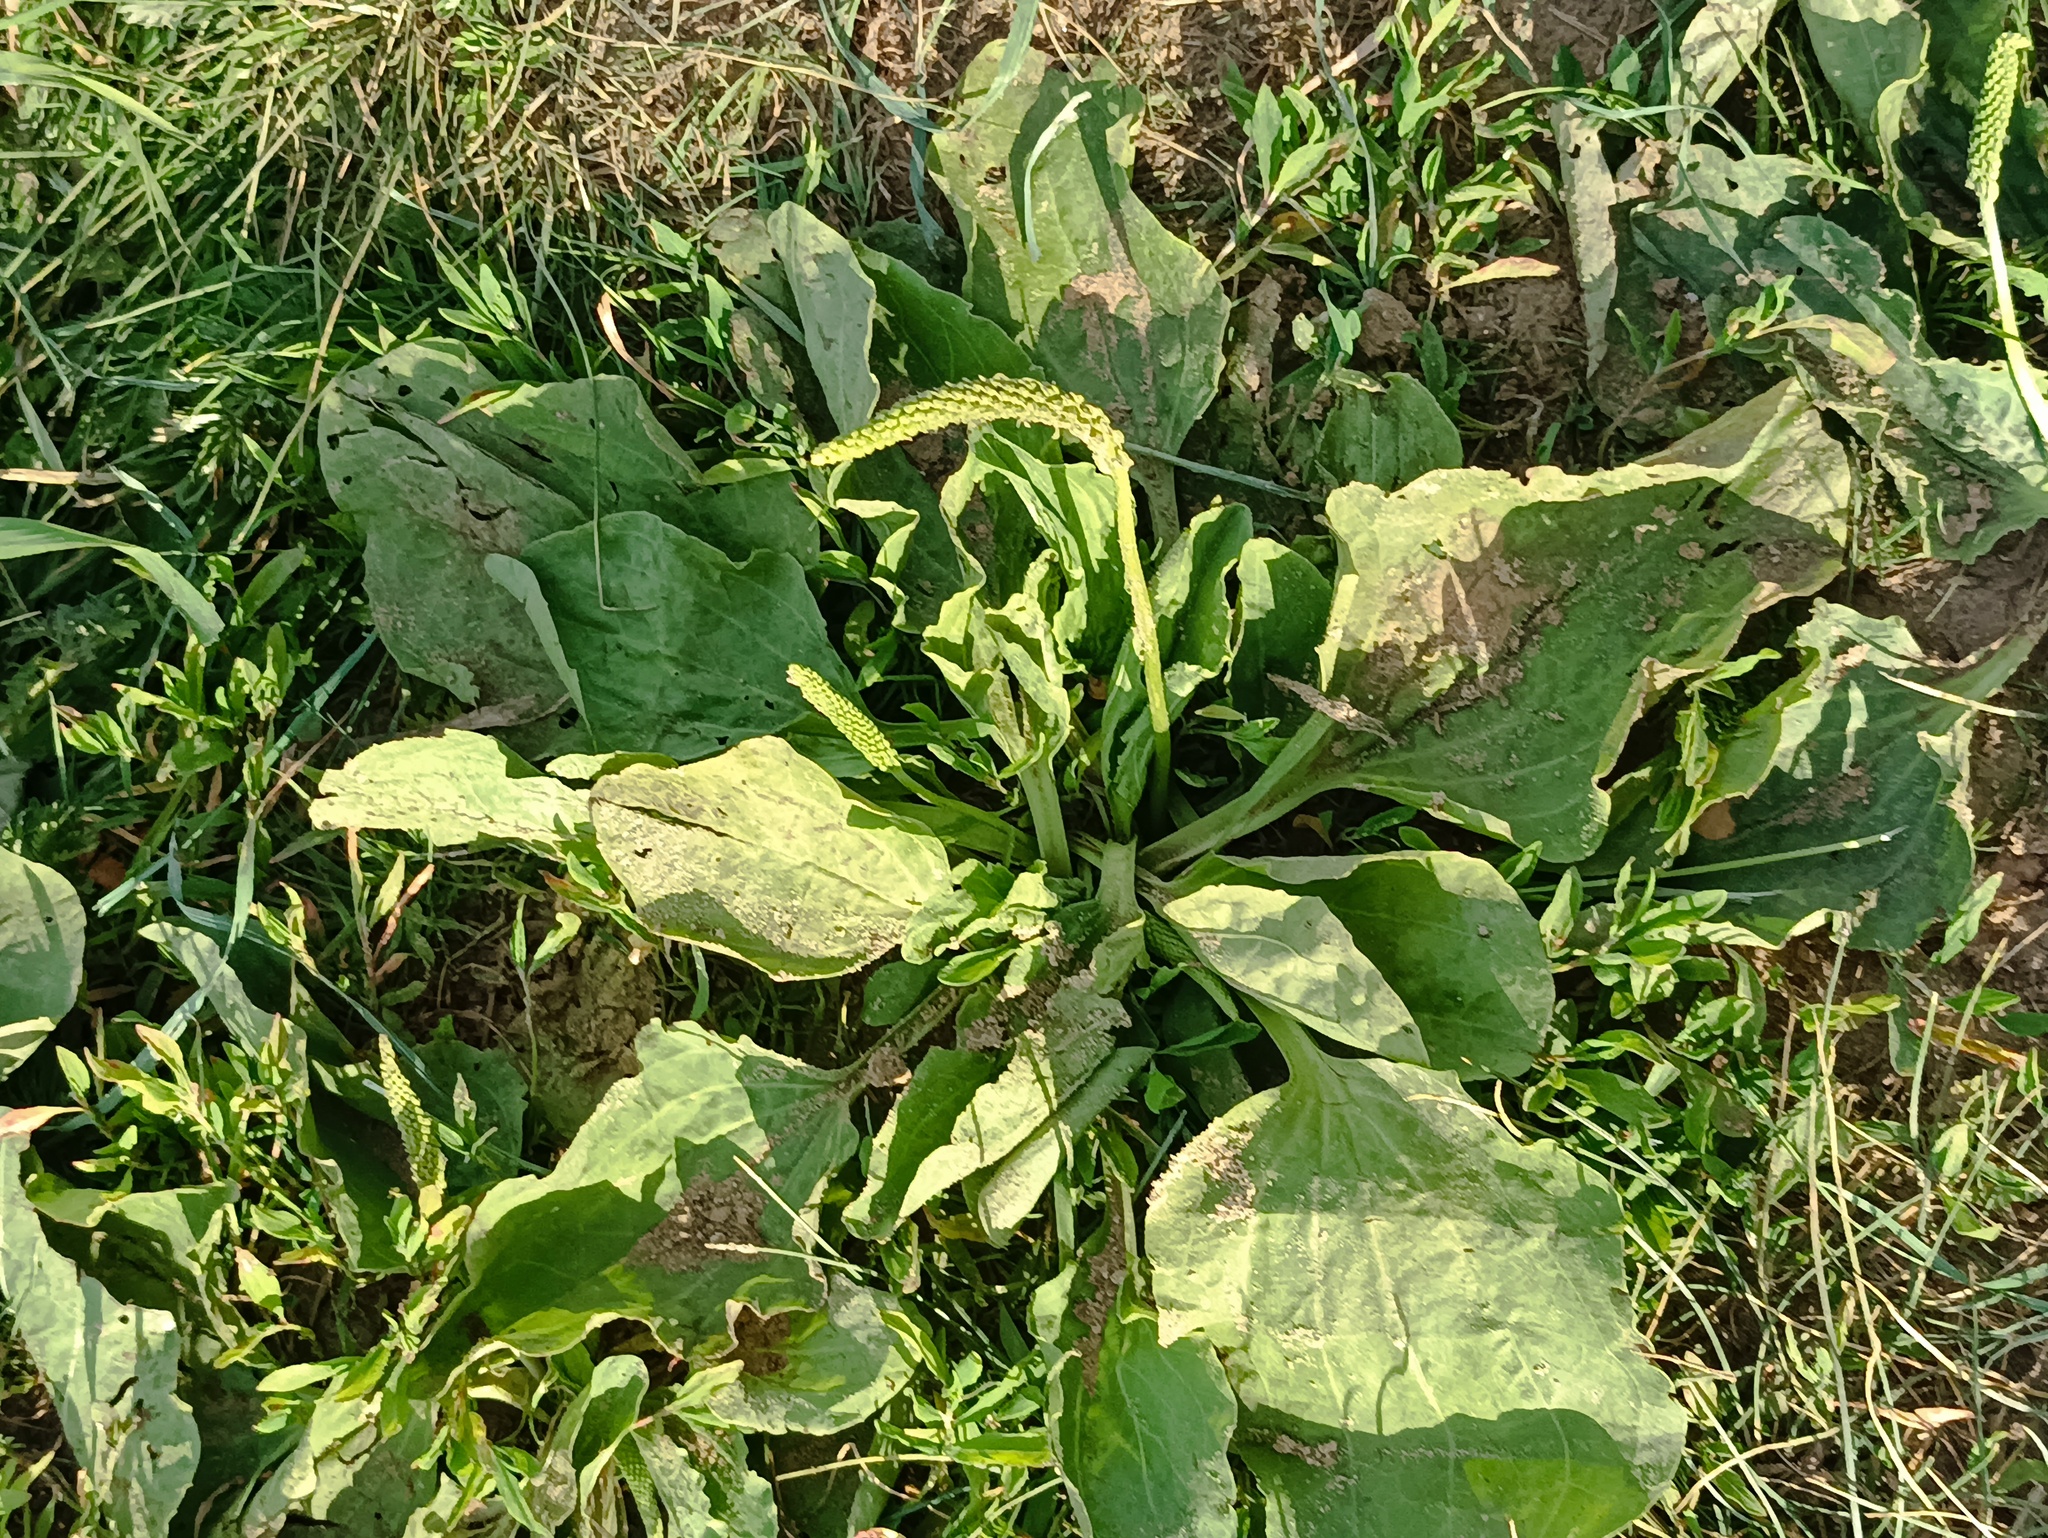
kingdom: Plantae
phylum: Tracheophyta
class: Magnoliopsida
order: Lamiales
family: Plantaginaceae
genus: Plantago
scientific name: Plantago major
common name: Common plantain
